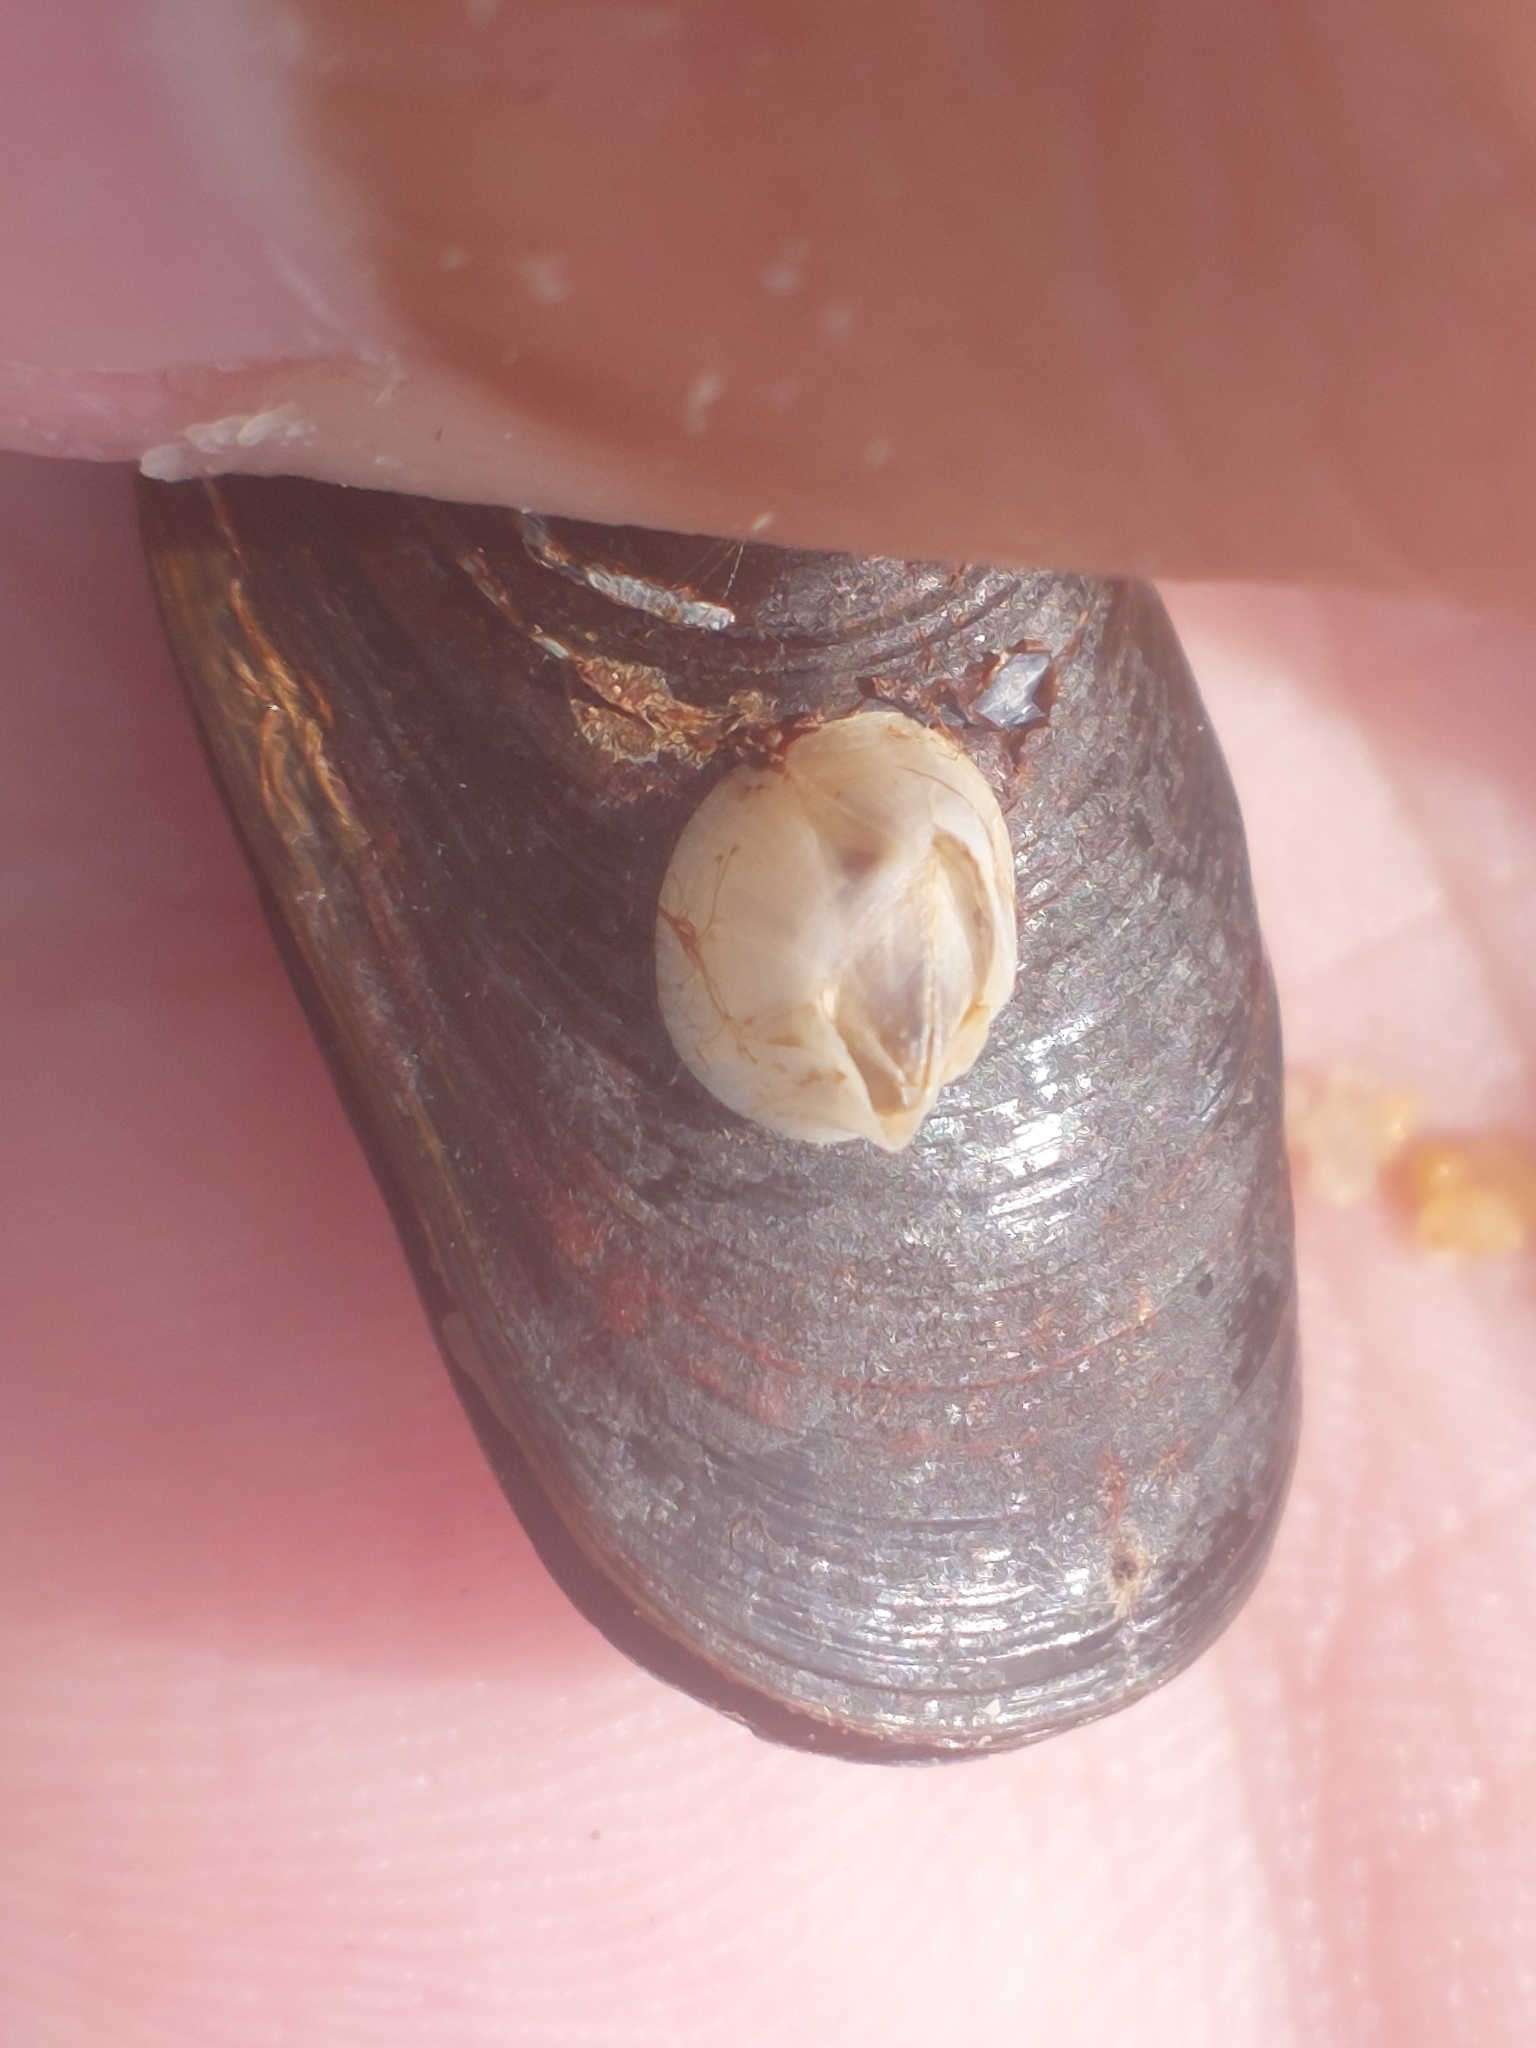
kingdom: Animalia
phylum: Arthropoda
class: Maxillopoda
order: Sessilia
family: Balanidae
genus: Amphibalanus
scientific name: Amphibalanus improvisus
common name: Bay barnacle
